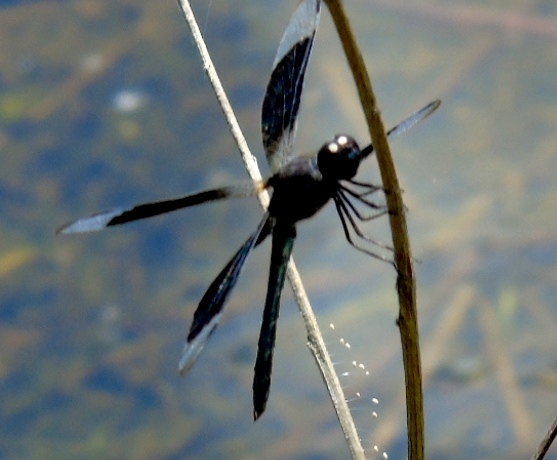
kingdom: Animalia
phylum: Arthropoda
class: Insecta
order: Odonata
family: Libellulidae
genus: Erythrodiplax
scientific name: Erythrodiplax funerea
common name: Black-winged dragonlet
